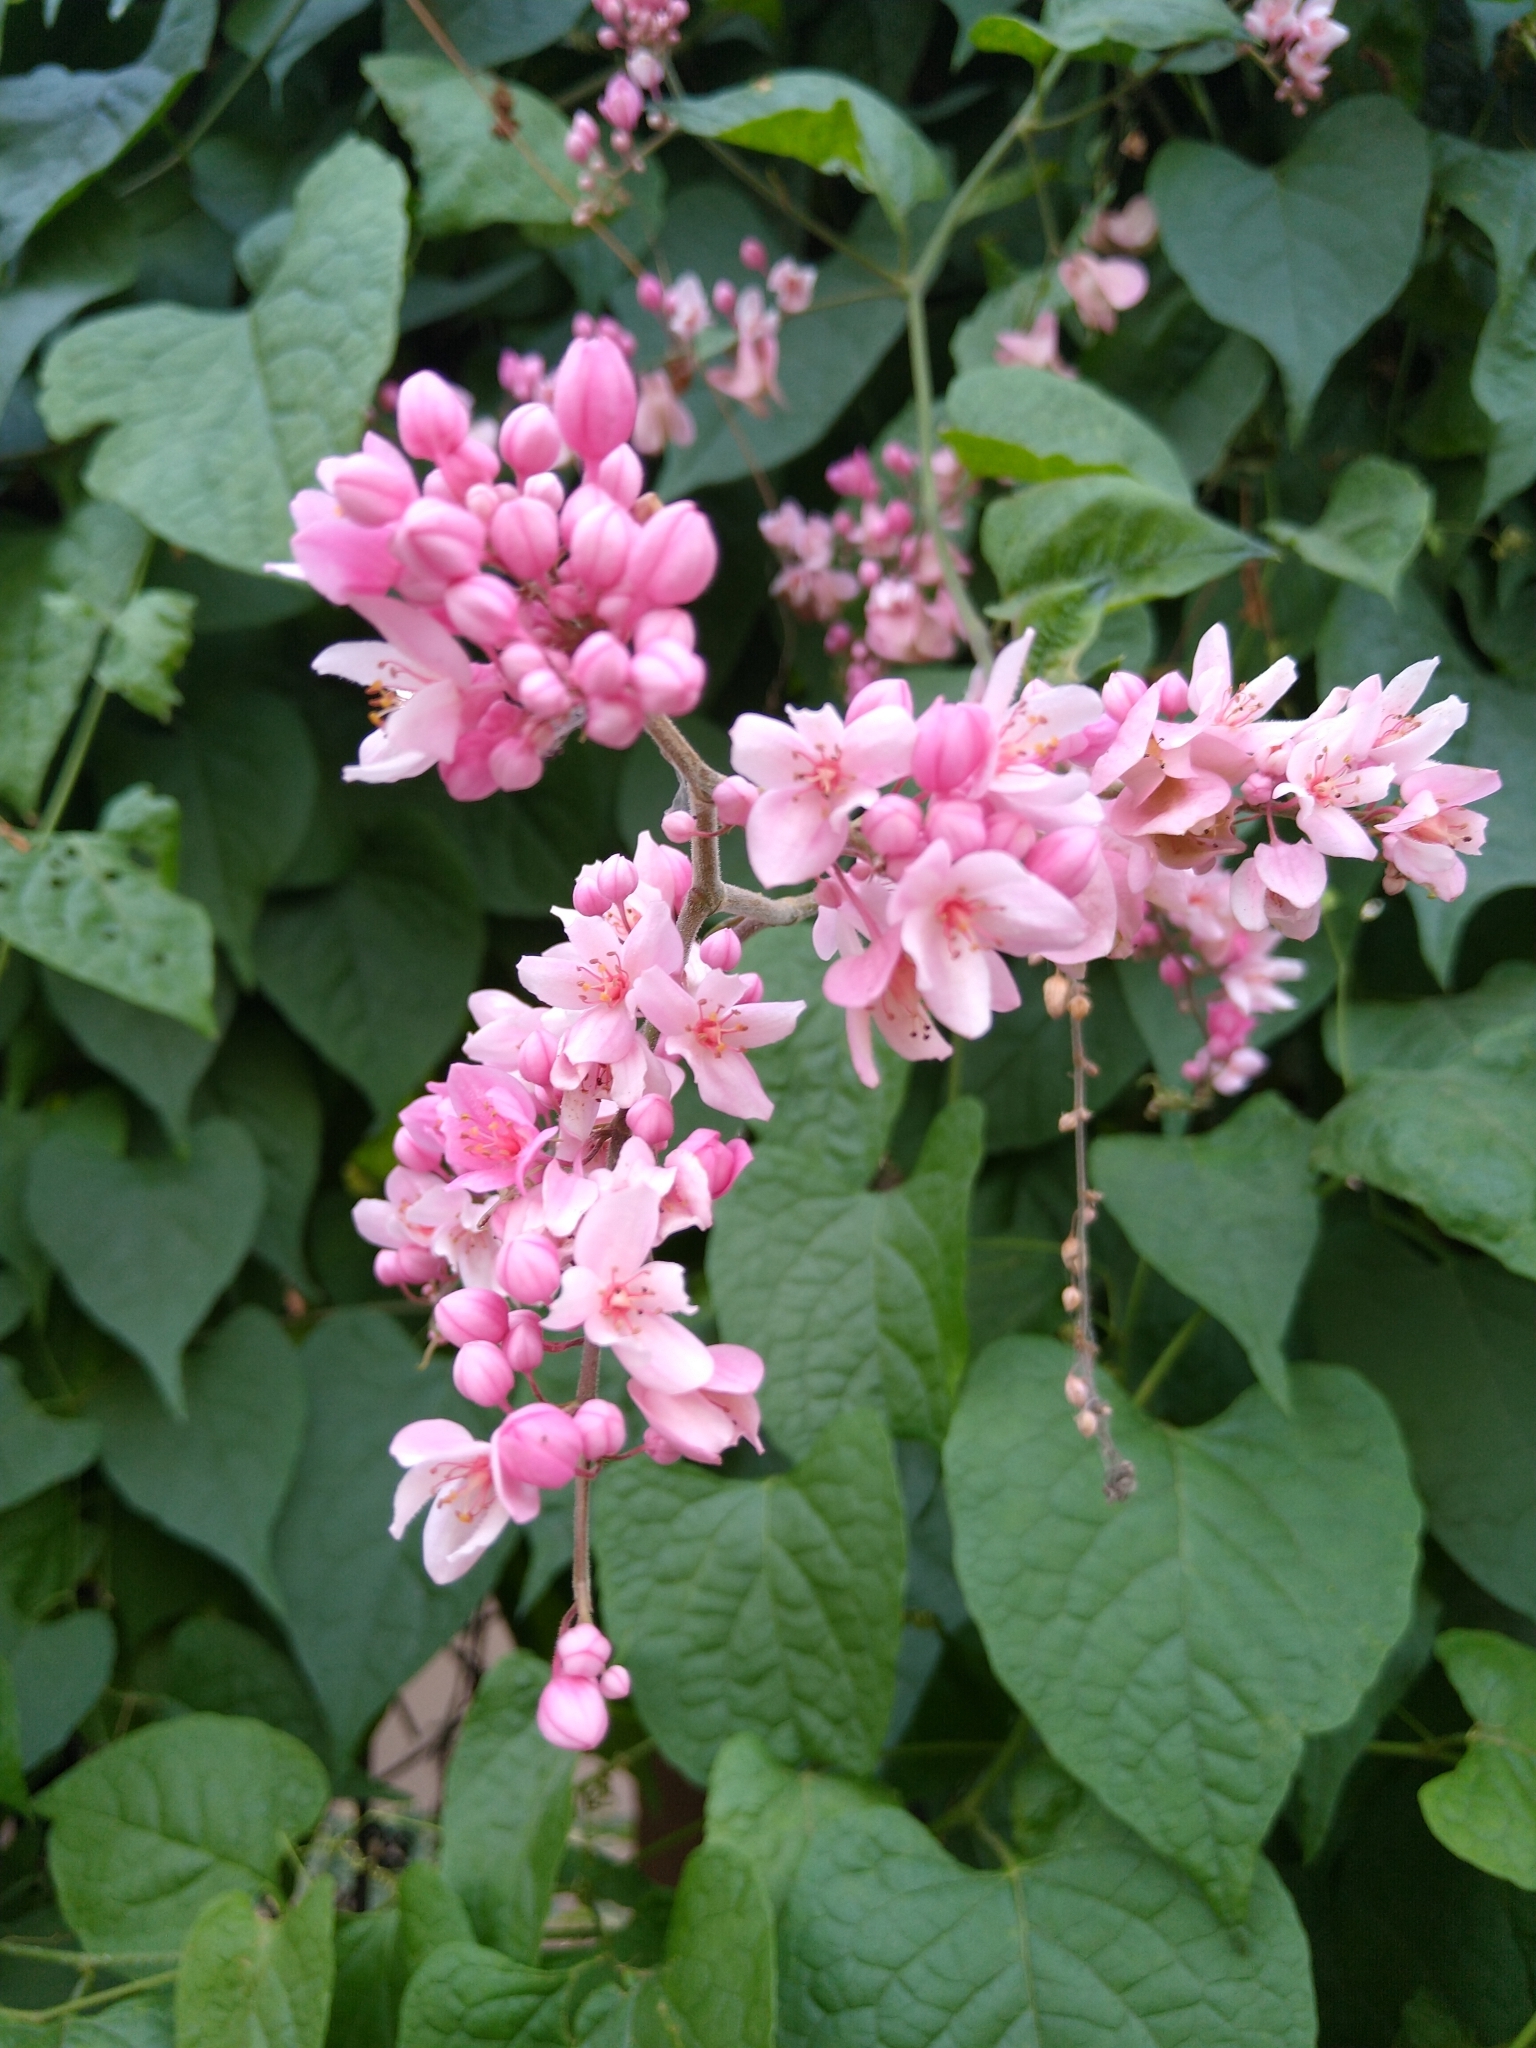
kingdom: Plantae
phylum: Tracheophyta
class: Magnoliopsida
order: Caryophyllales
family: Polygonaceae
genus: Antigonon
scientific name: Antigonon leptopus
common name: Coral vine
